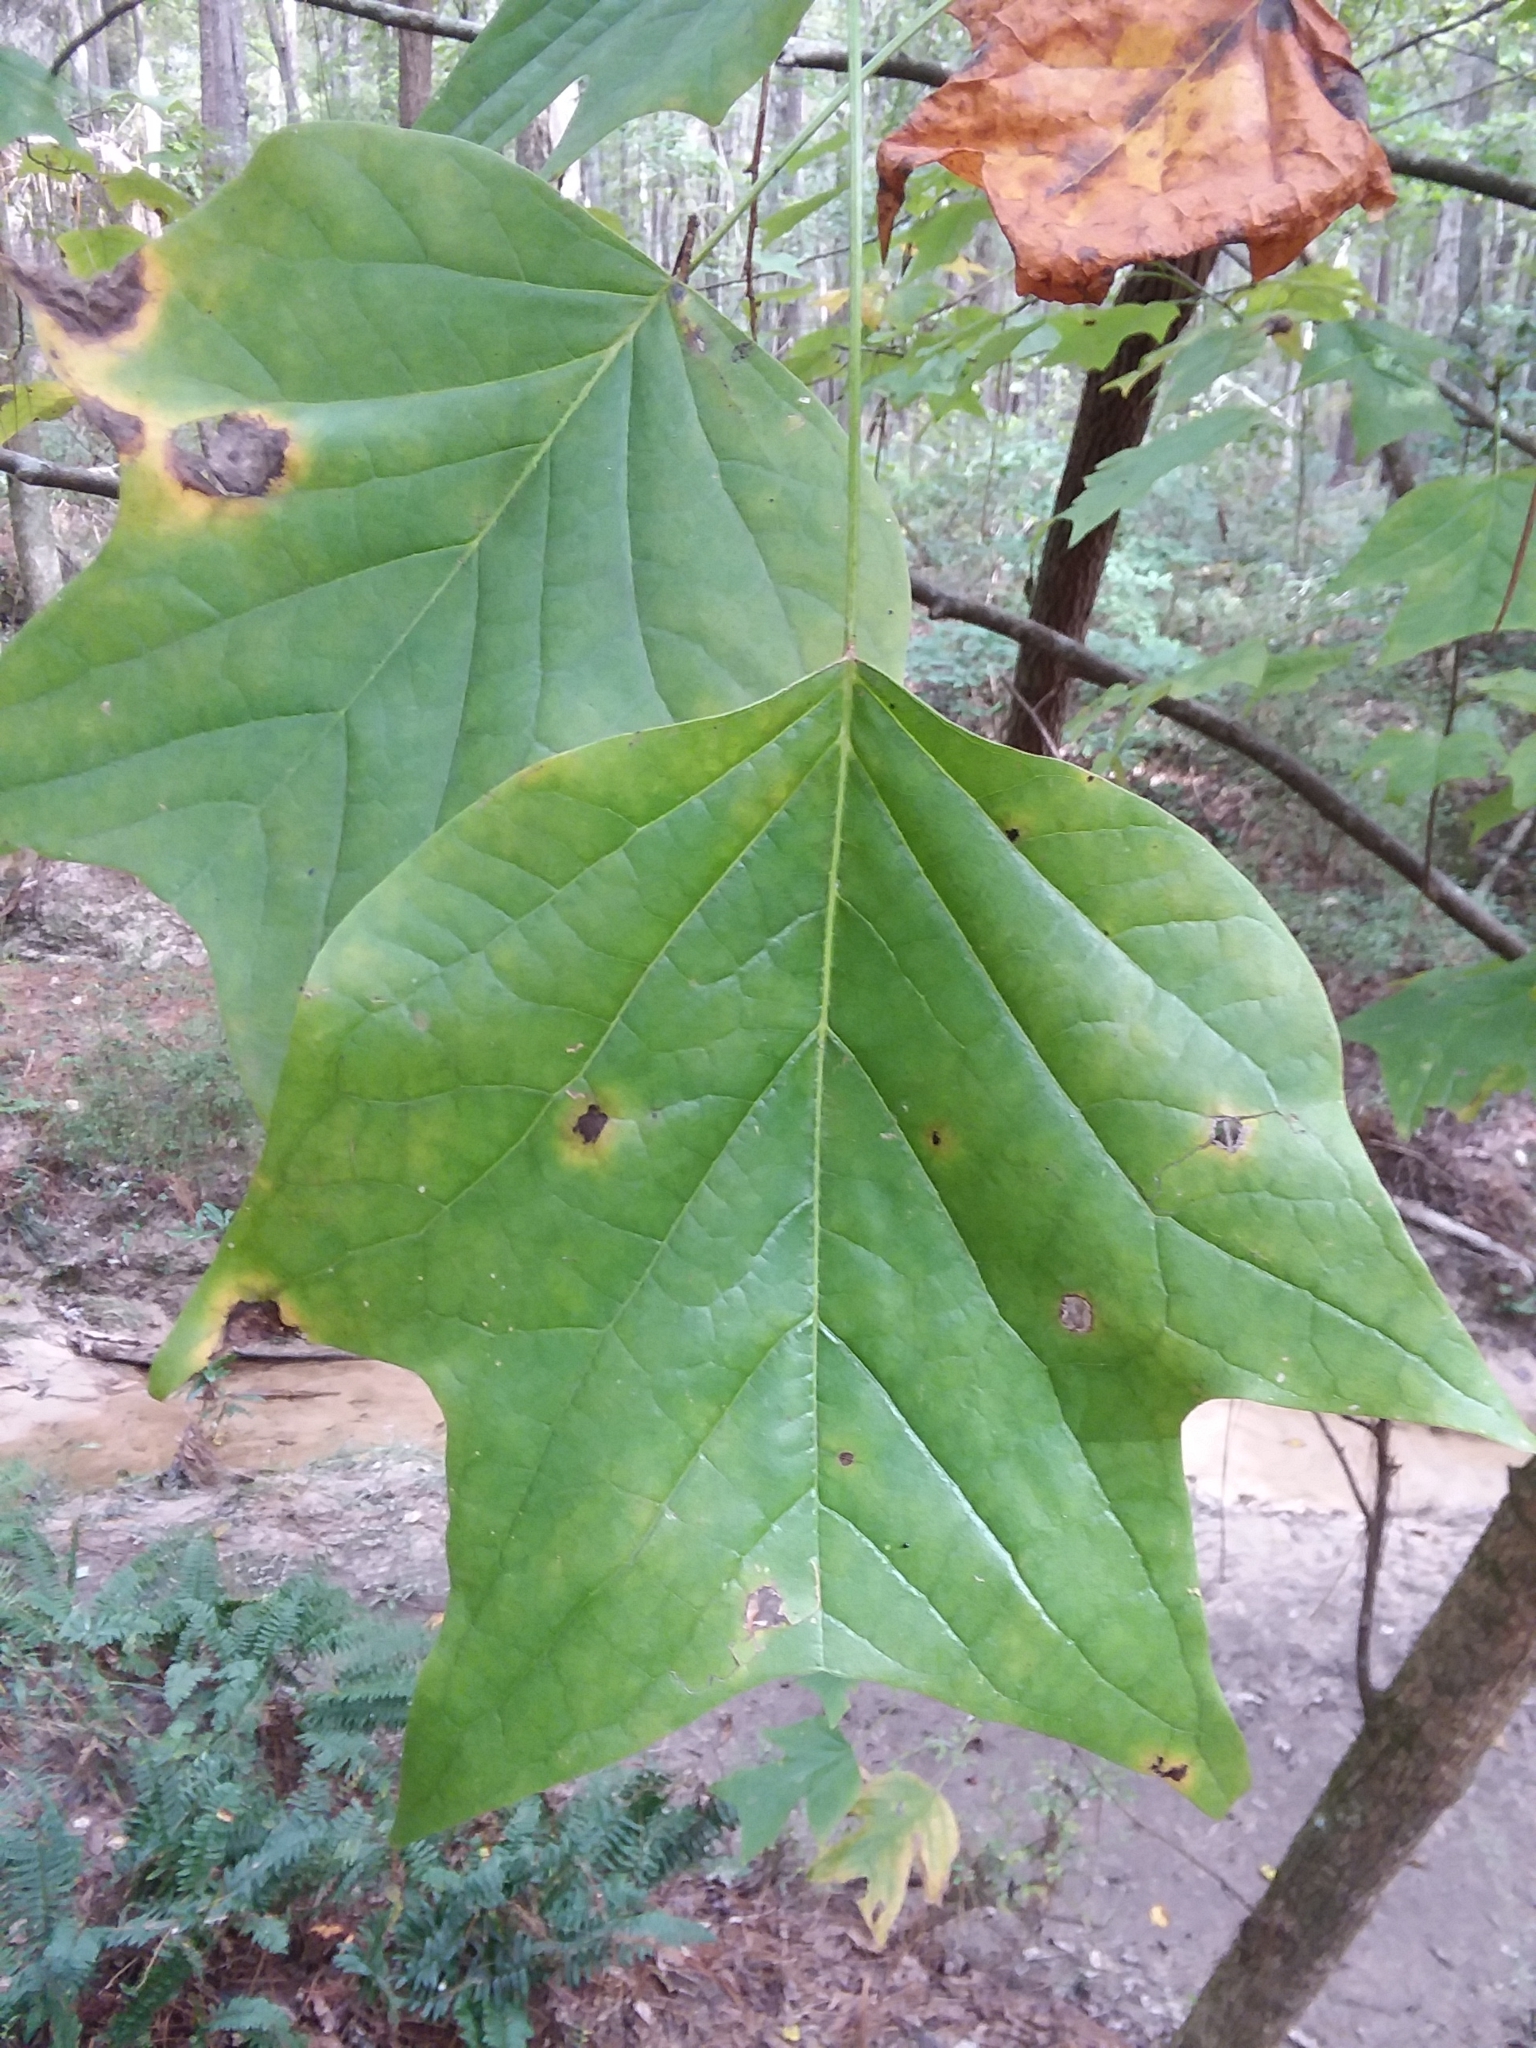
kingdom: Plantae
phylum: Tracheophyta
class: Magnoliopsida
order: Magnoliales
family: Magnoliaceae
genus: Liriodendron
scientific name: Liriodendron tulipifera
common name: Tulip tree
